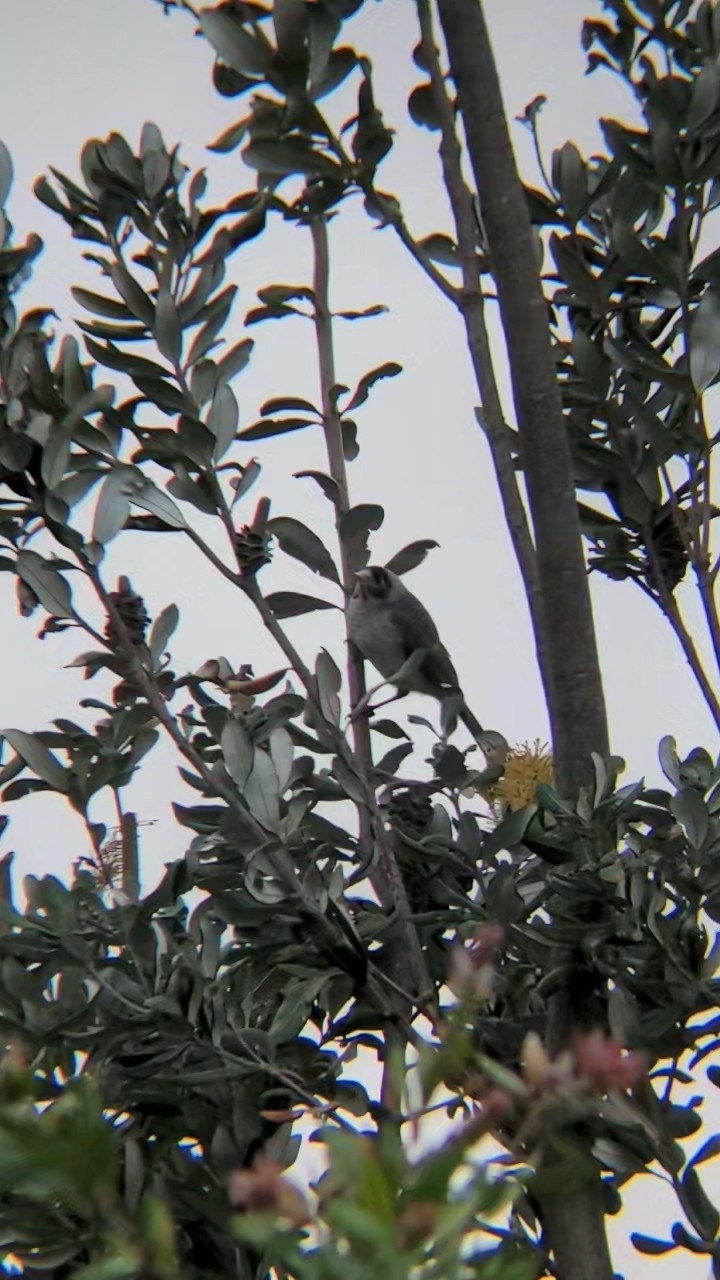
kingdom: Animalia
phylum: Chordata
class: Aves
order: Passeriformes
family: Meliphagidae
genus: Manorina
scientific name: Manorina melanocephala
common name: Noisy miner
